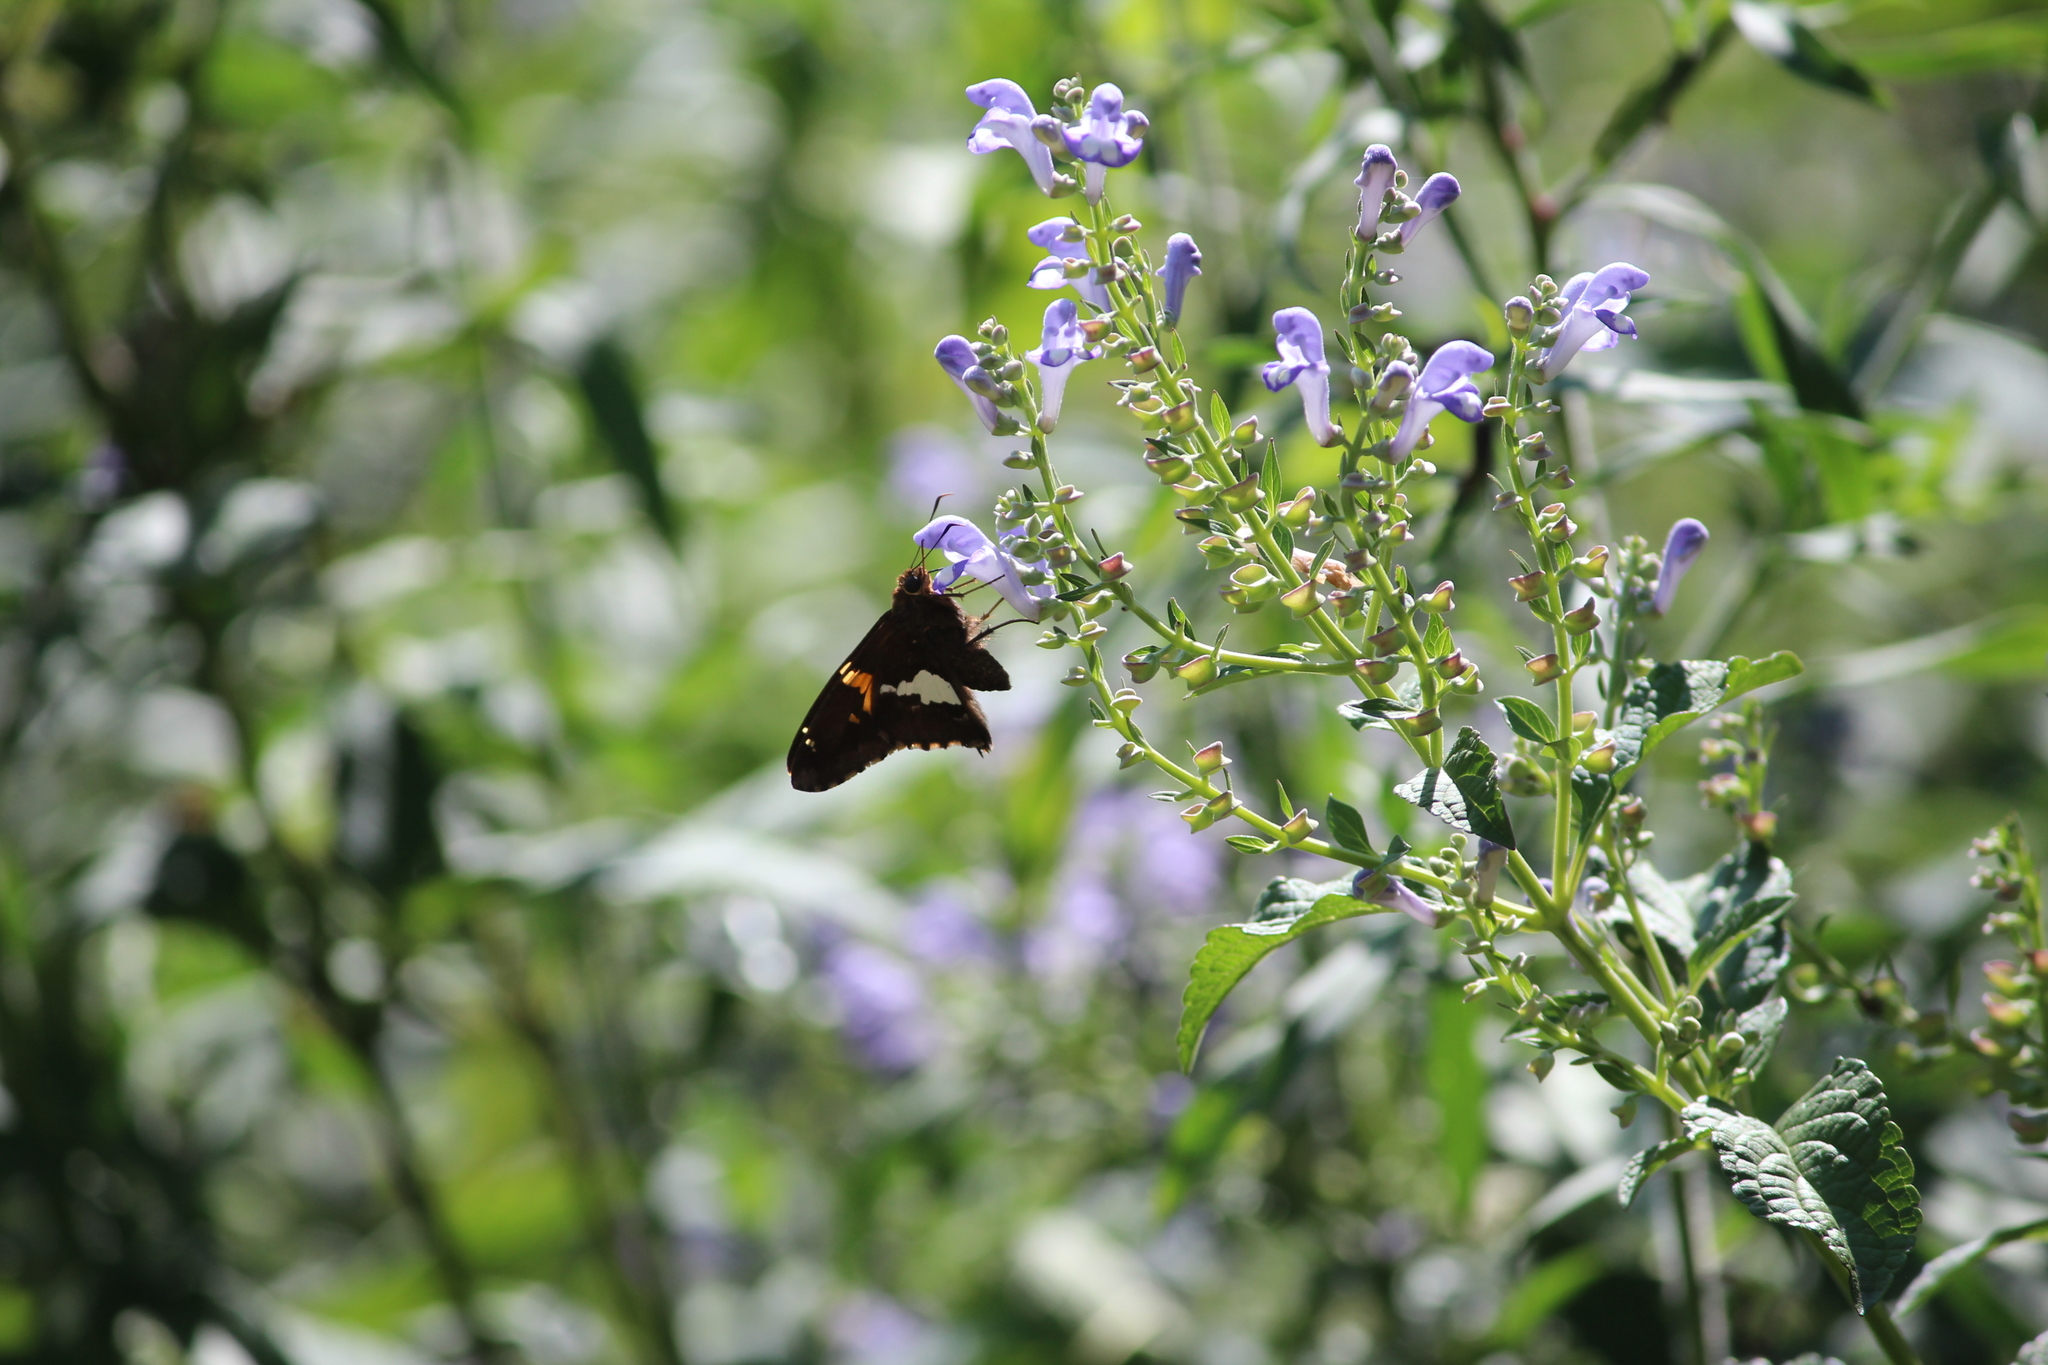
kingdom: Animalia
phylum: Arthropoda
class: Insecta
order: Lepidoptera
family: Hesperiidae
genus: Epargyreus
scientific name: Epargyreus clarus
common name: Silver-spotted skipper
